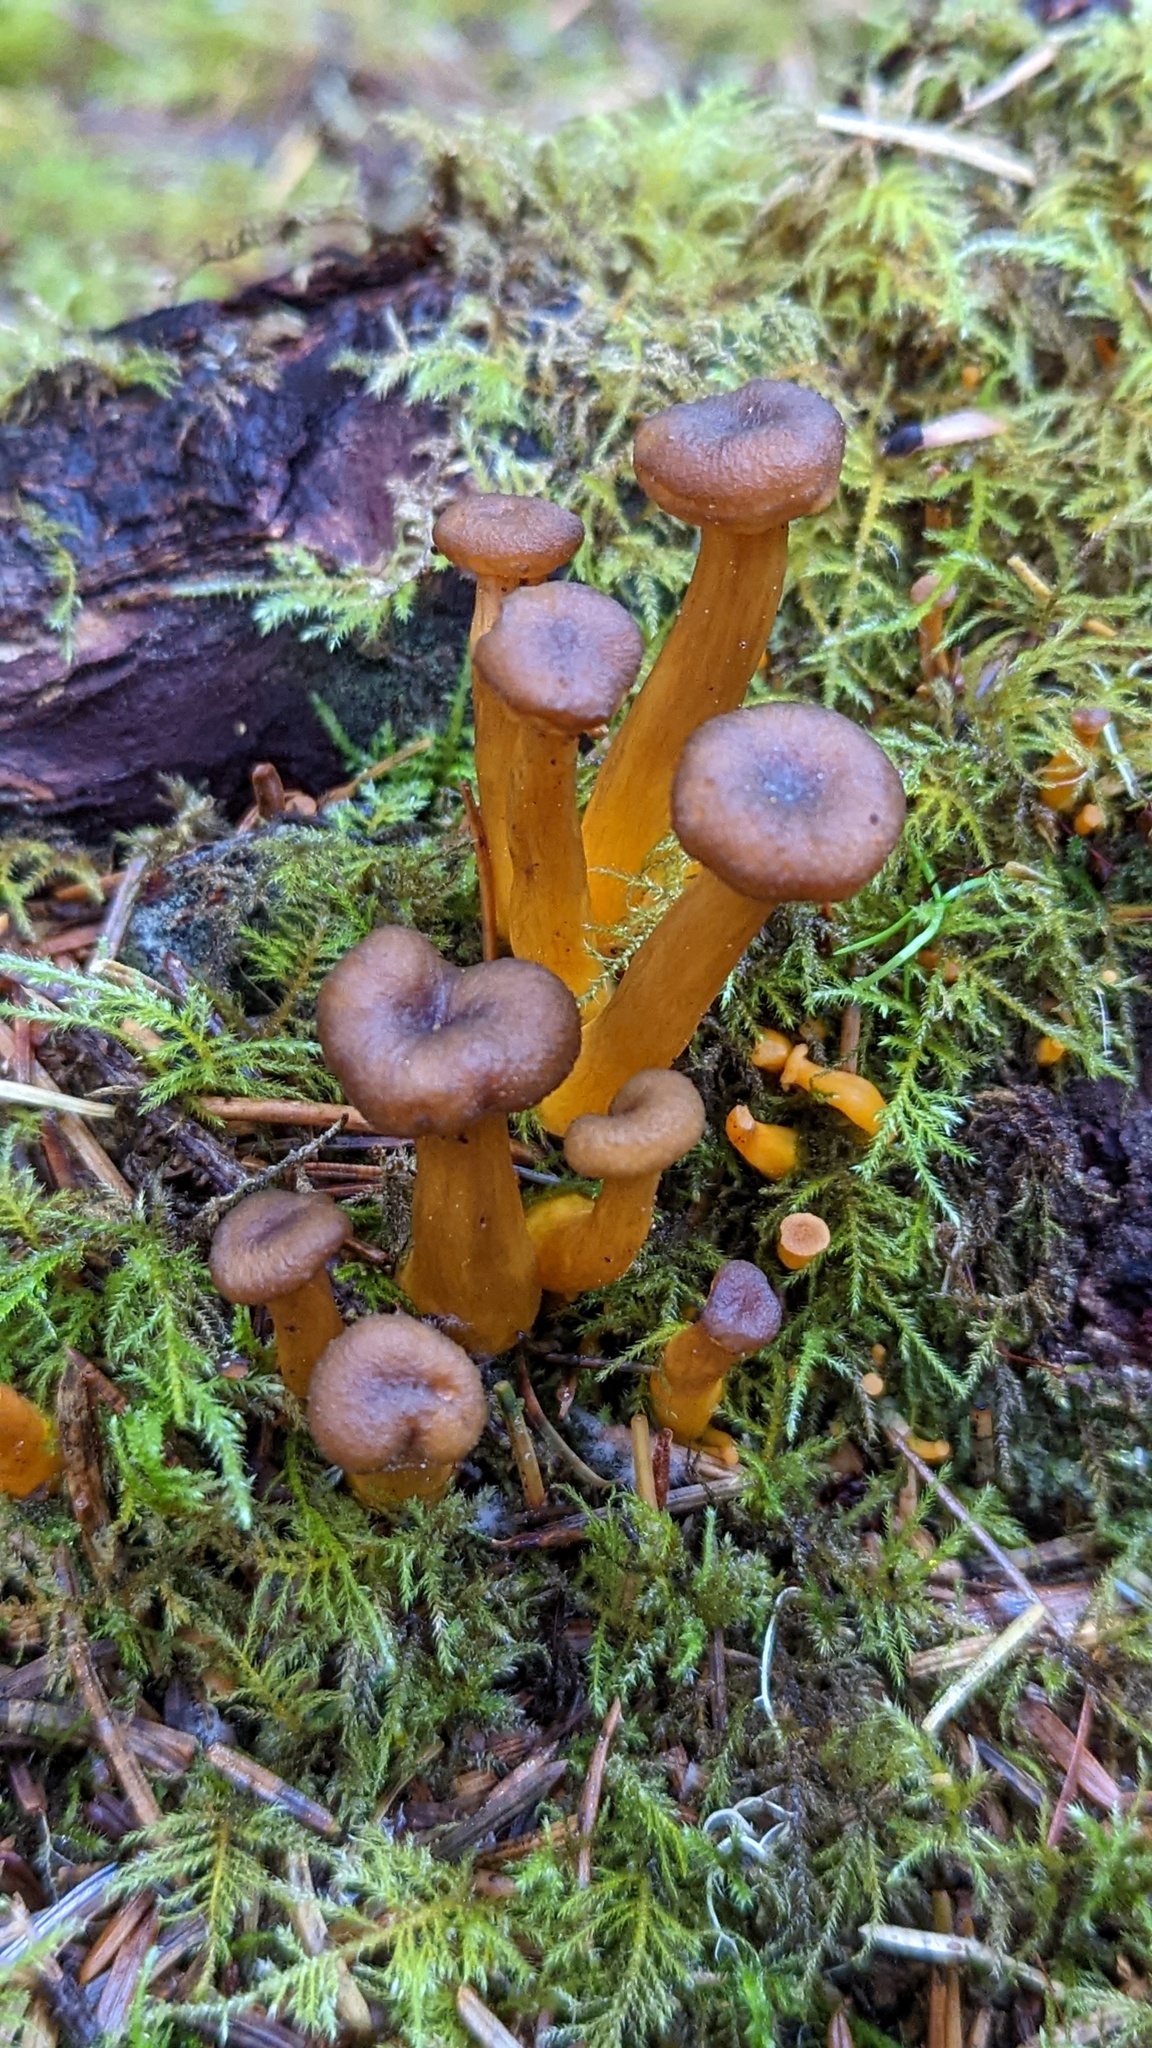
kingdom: Fungi
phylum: Basidiomycota
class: Agaricomycetes
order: Cantharellales
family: Hydnaceae
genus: Craterellus
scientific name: Craterellus tubaeformis
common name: Yellowfoot
